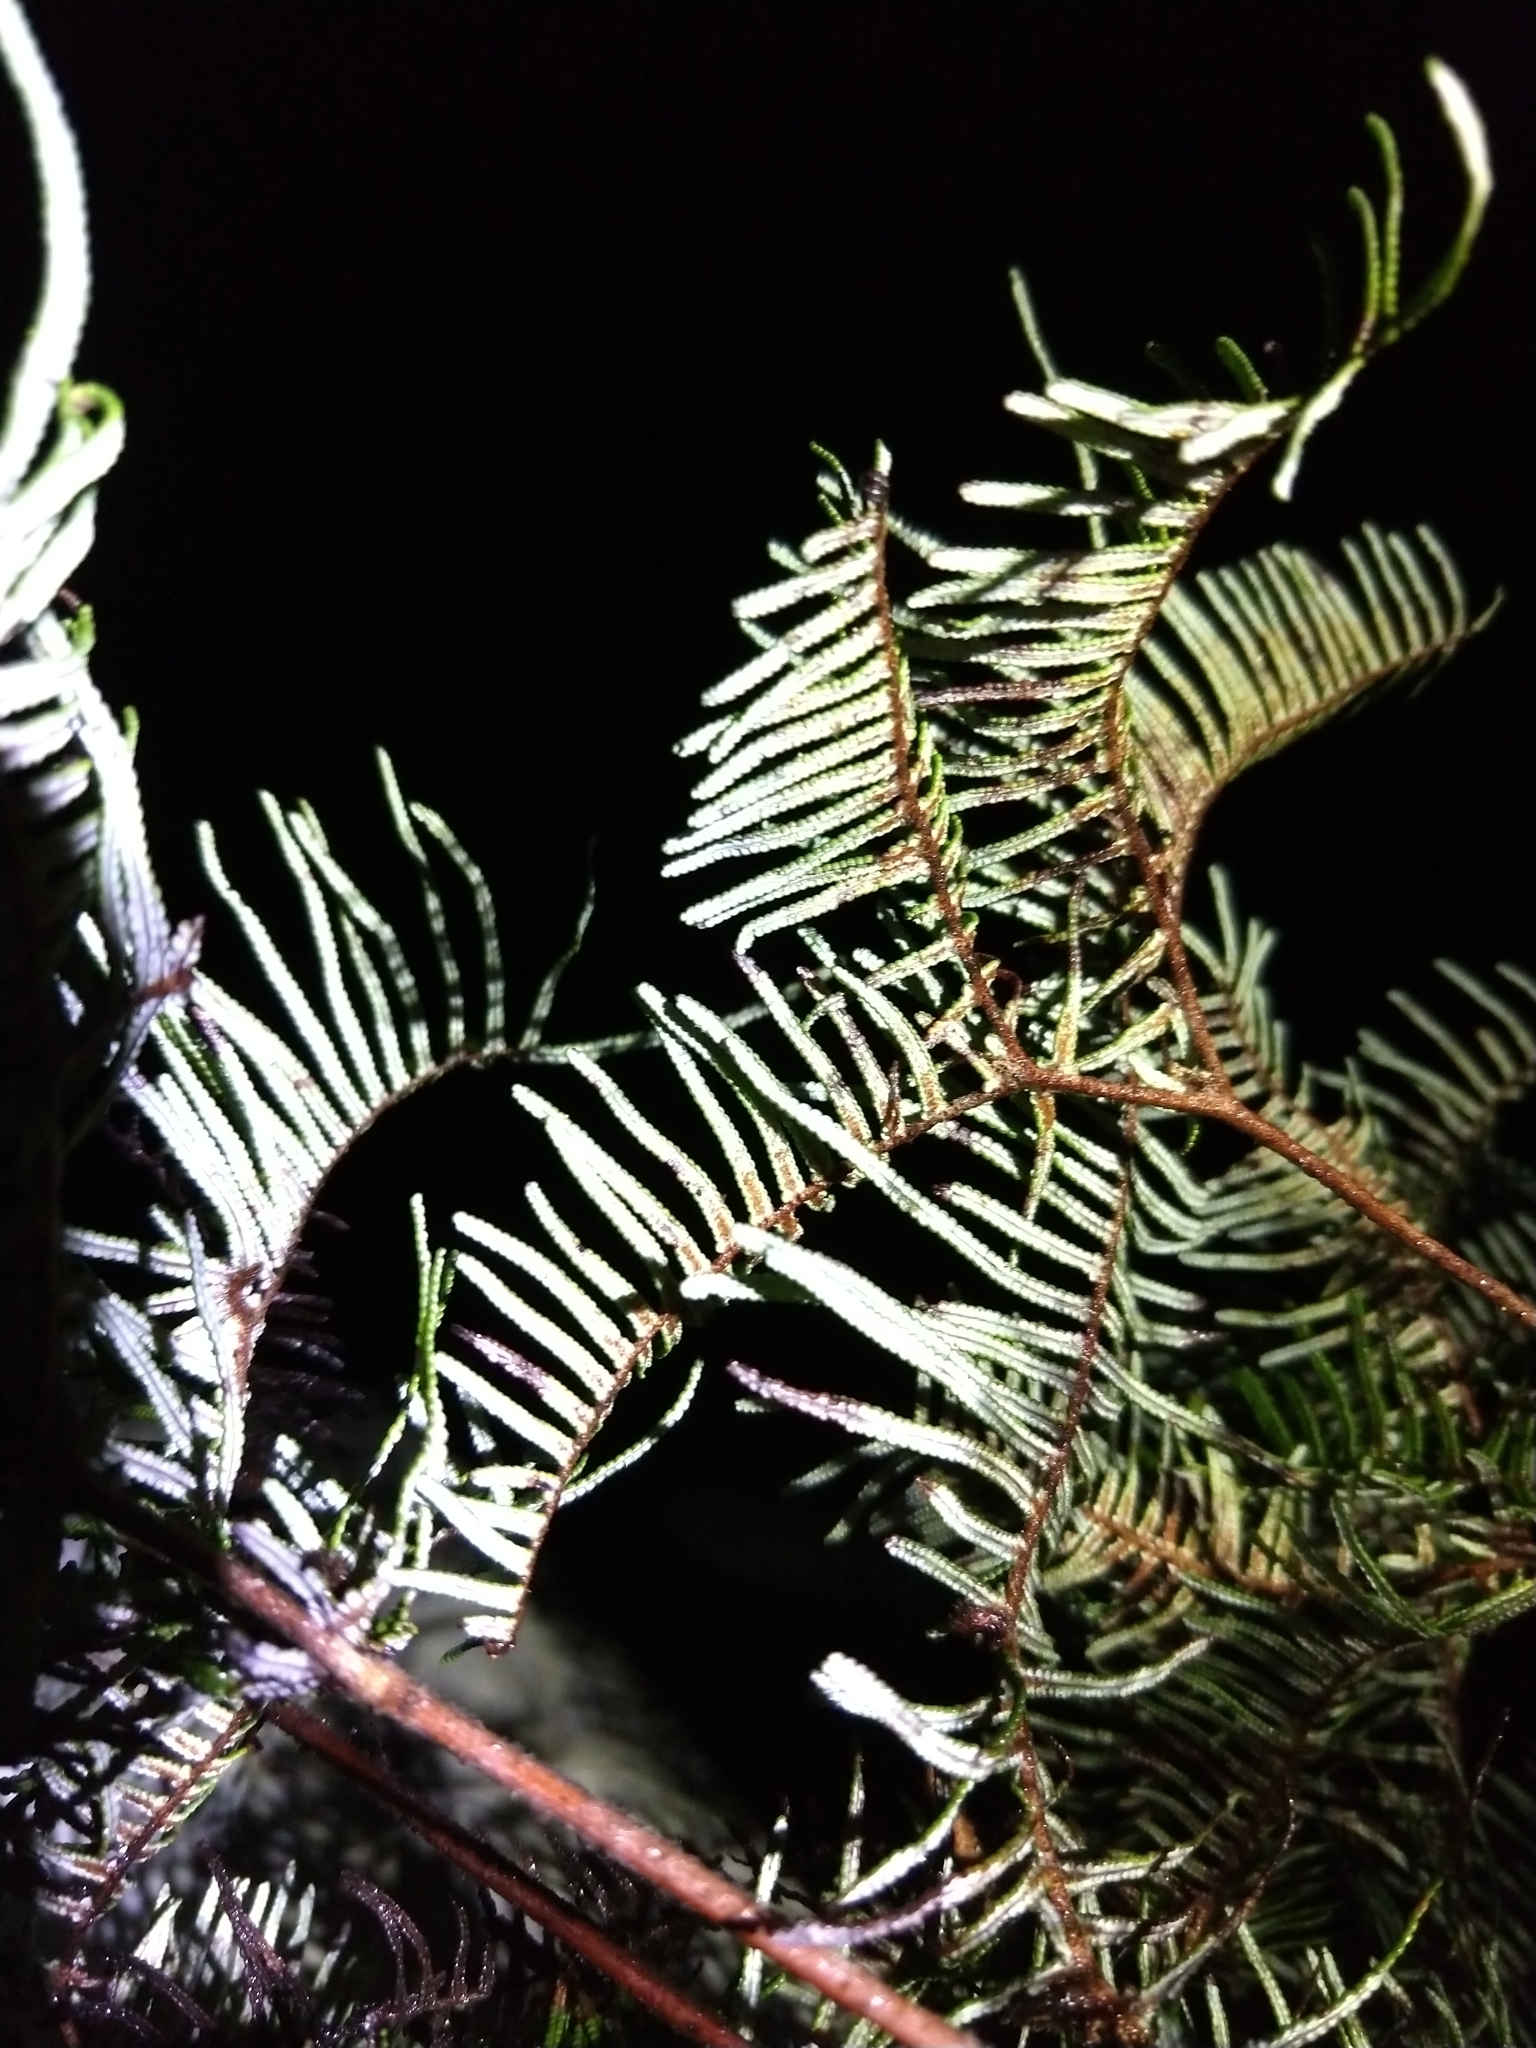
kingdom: Plantae
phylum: Tracheophyta
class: Polypodiopsida
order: Gleicheniales
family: Gleicheniaceae
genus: Gleichenia
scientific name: Gleichenia dicarpa
